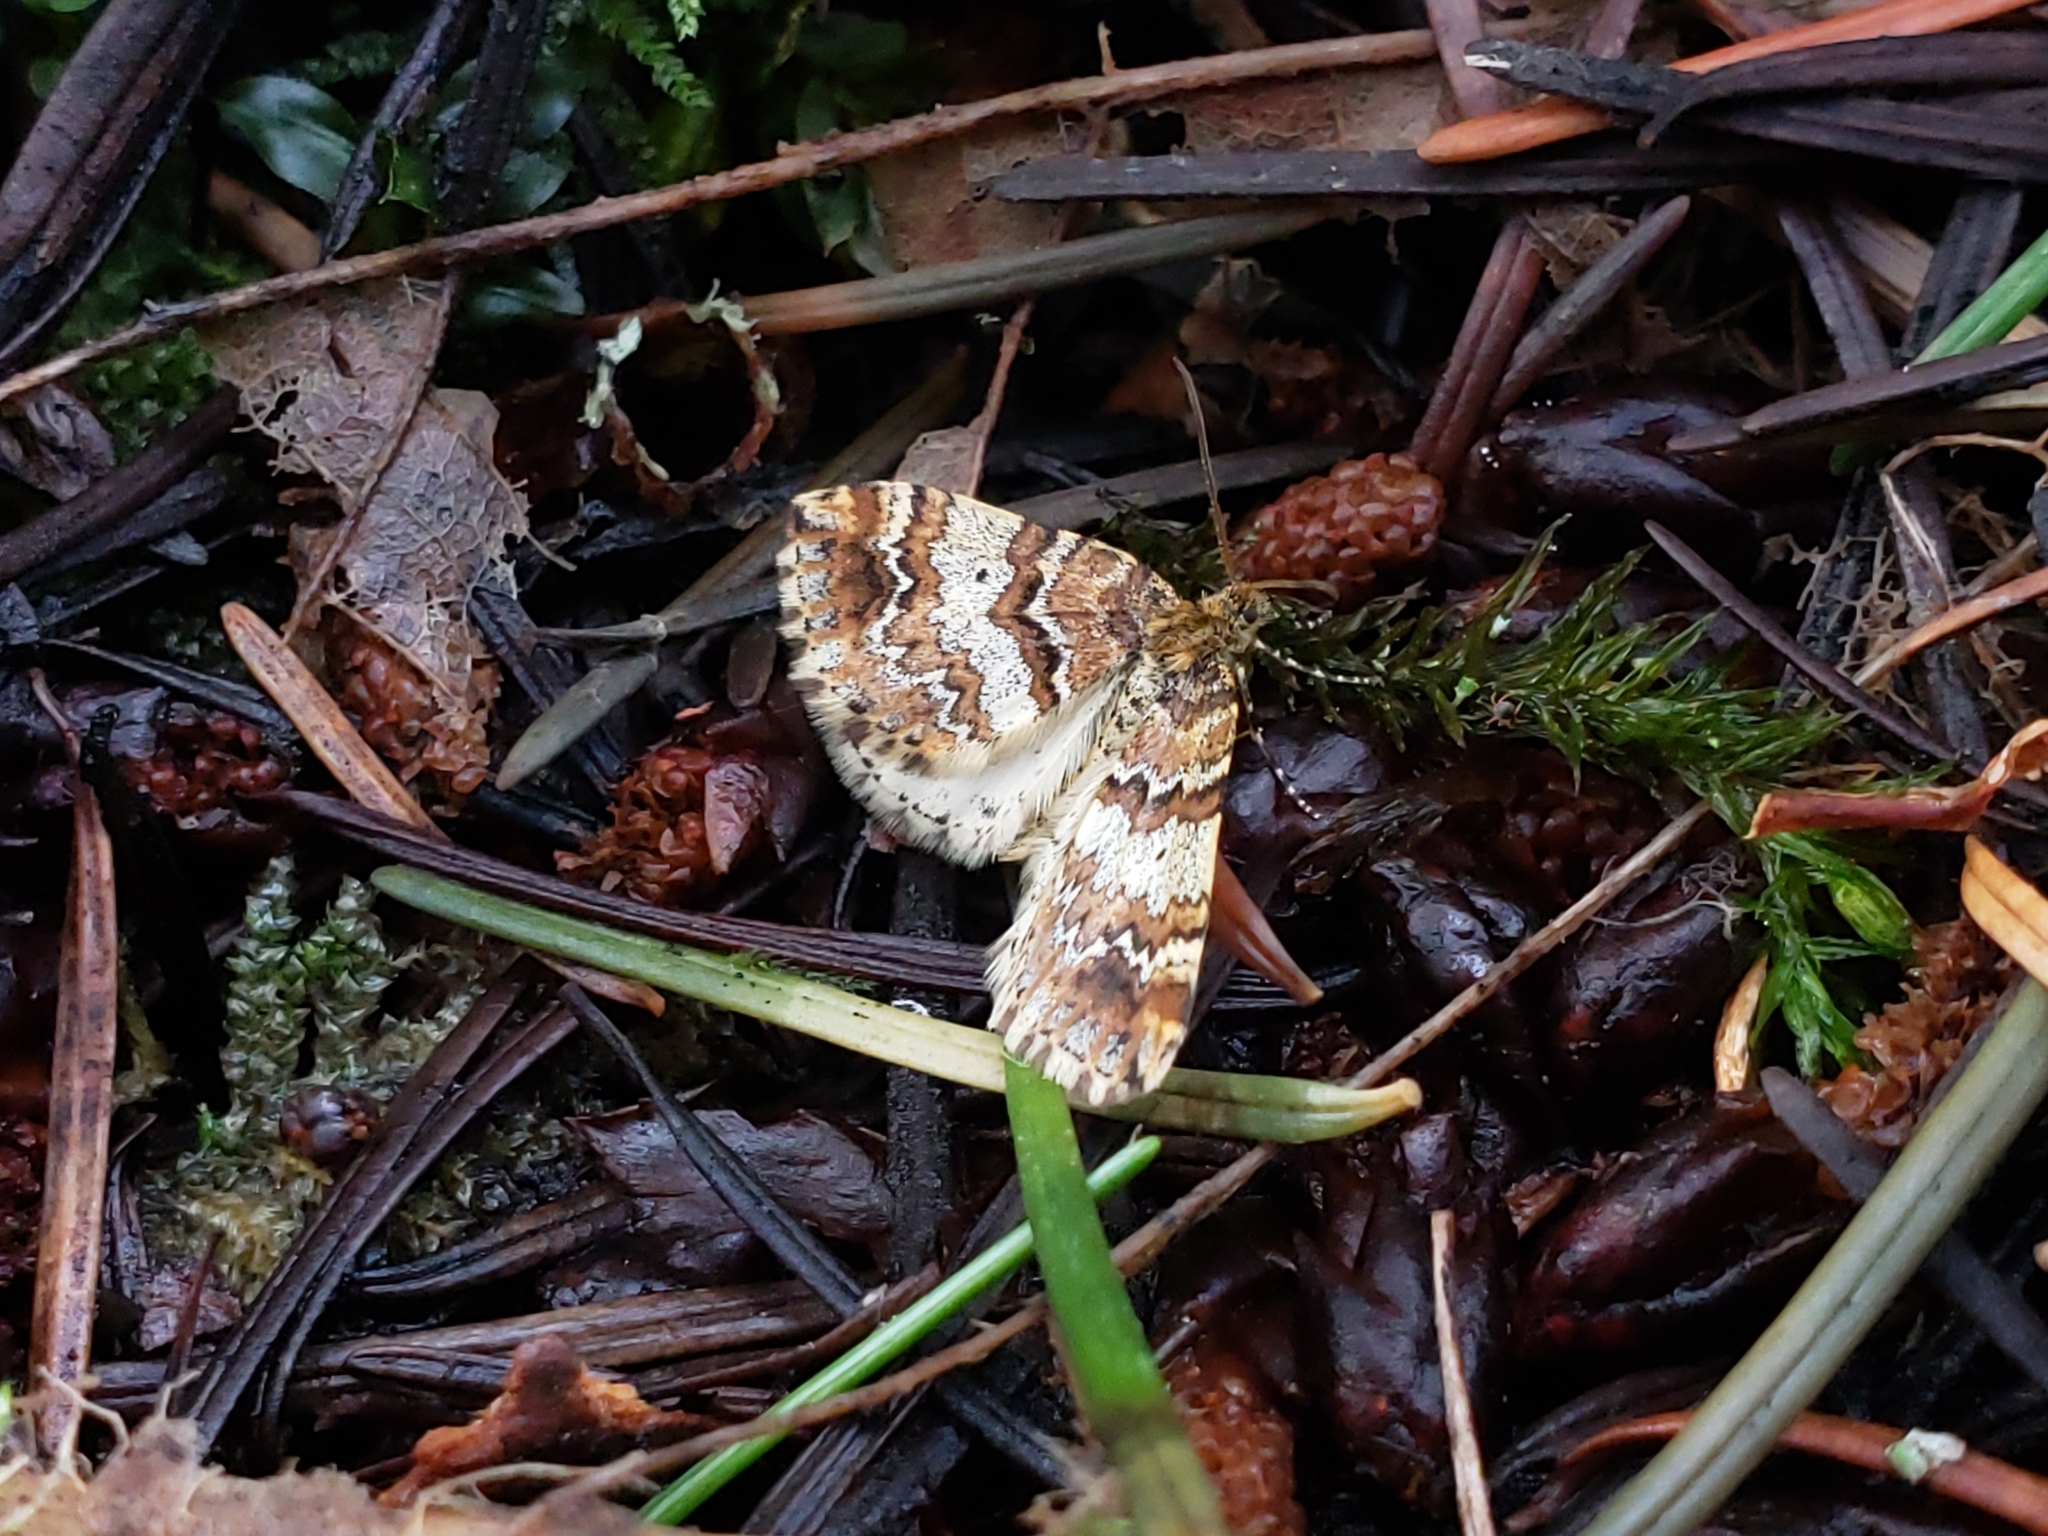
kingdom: Animalia
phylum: Arthropoda
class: Insecta
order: Lepidoptera
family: Geometridae
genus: Enchoria
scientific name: Enchoria lacteata
